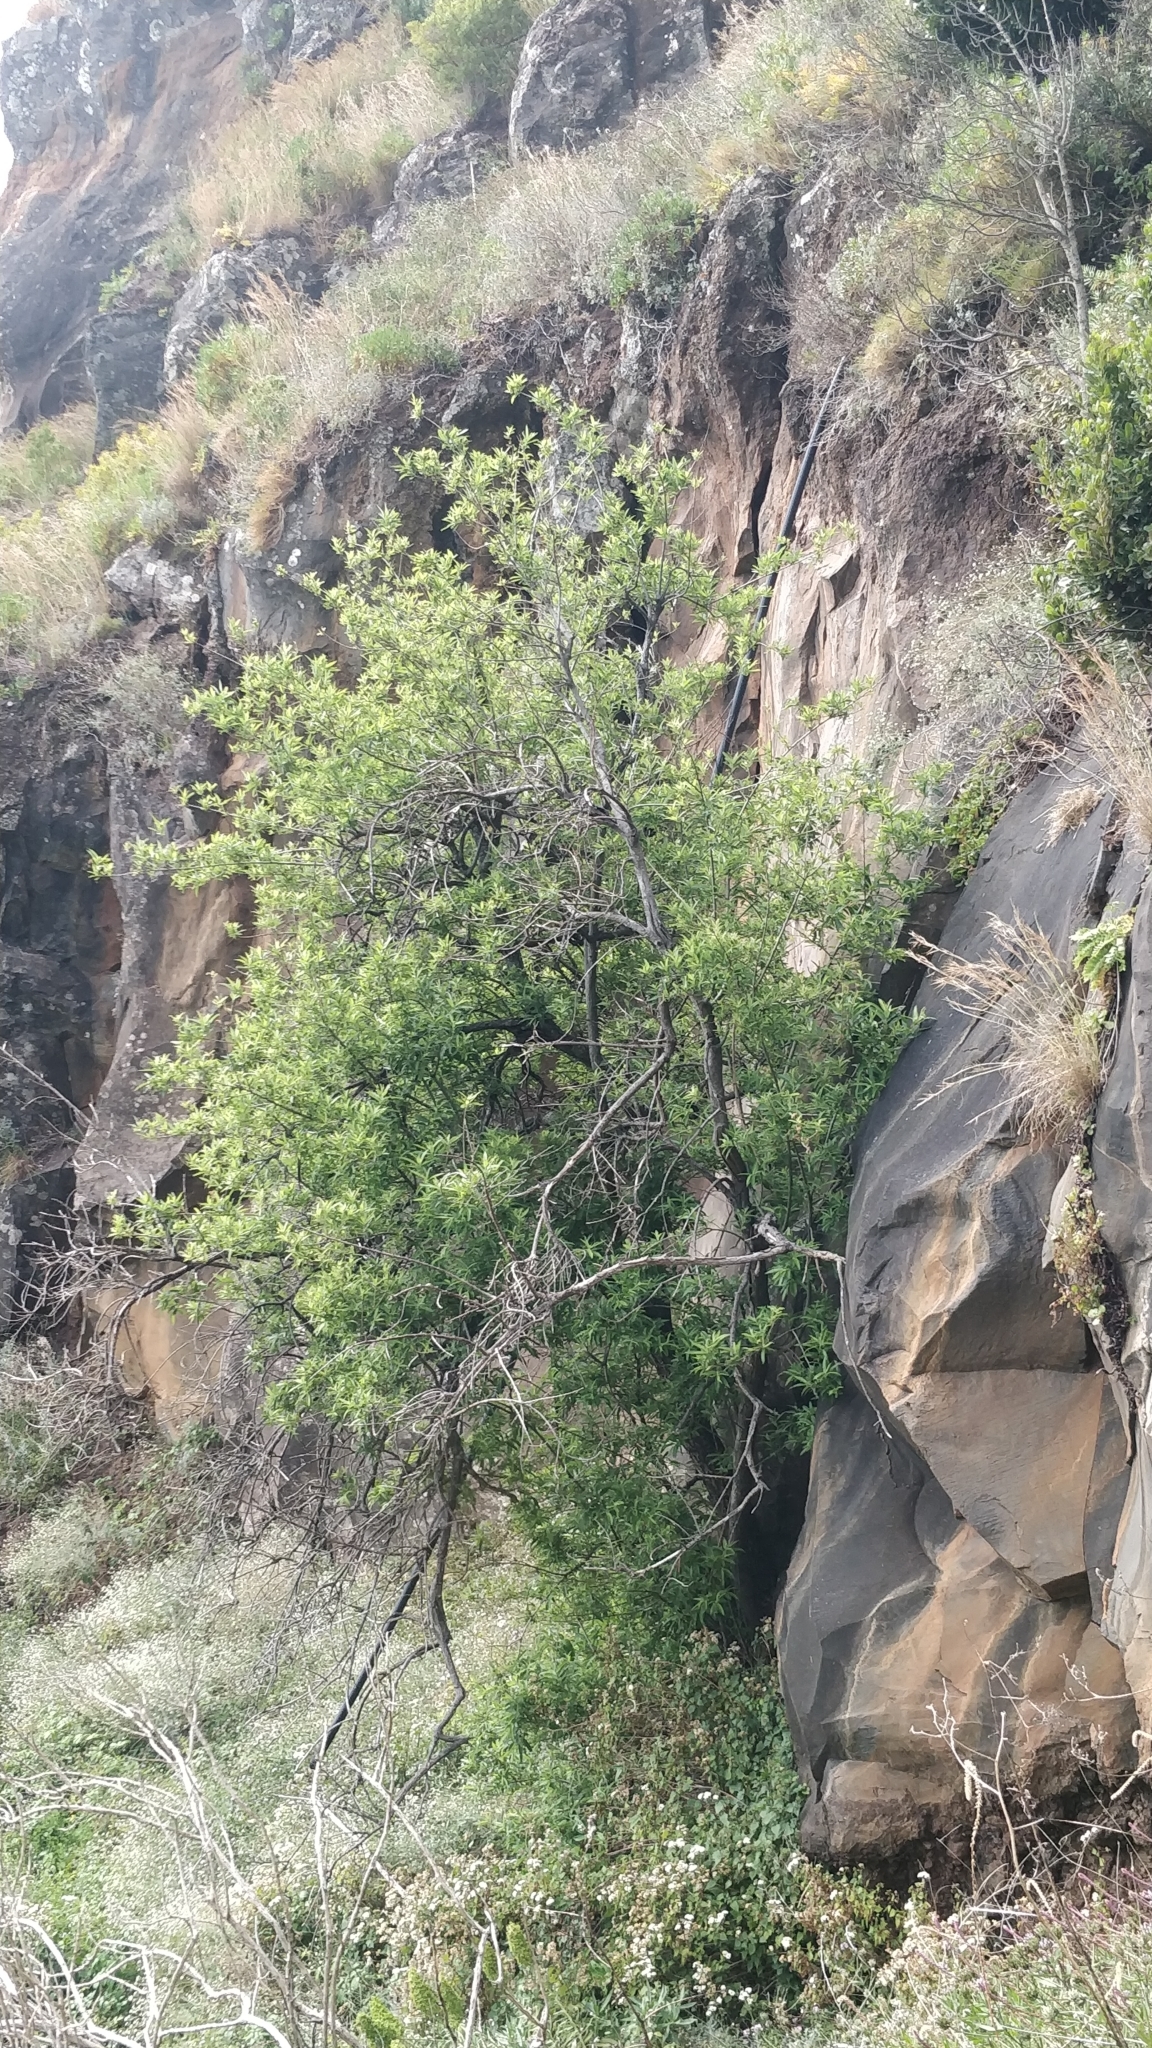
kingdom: Plantae
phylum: Tracheophyta
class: Magnoliopsida
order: Malpighiales
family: Salicaceae
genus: Salix
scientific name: Salix canariensis
